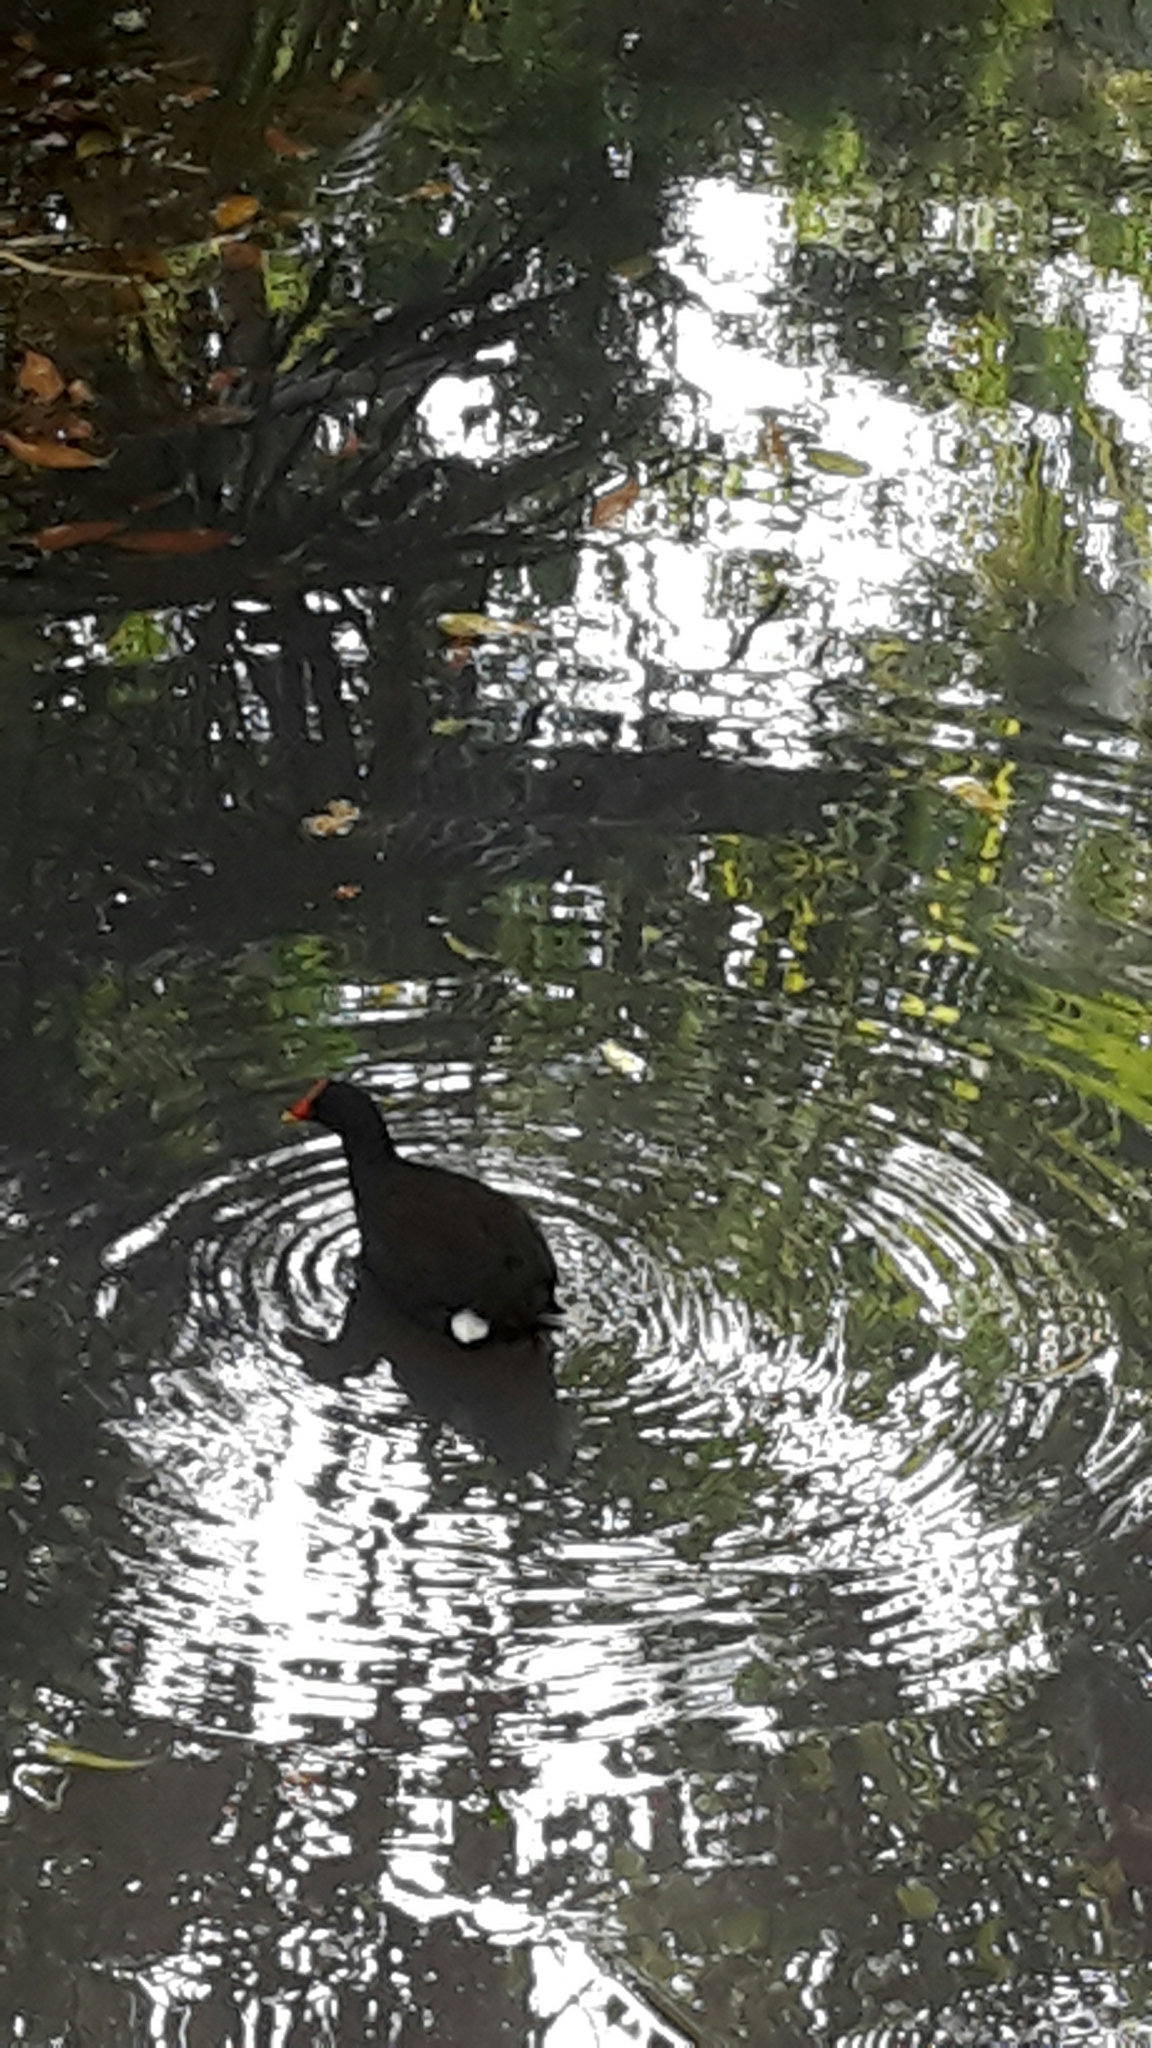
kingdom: Animalia
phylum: Chordata
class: Aves
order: Gruiformes
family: Rallidae
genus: Gallinula
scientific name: Gallinula tenebrosa
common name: Dusky moorhen
